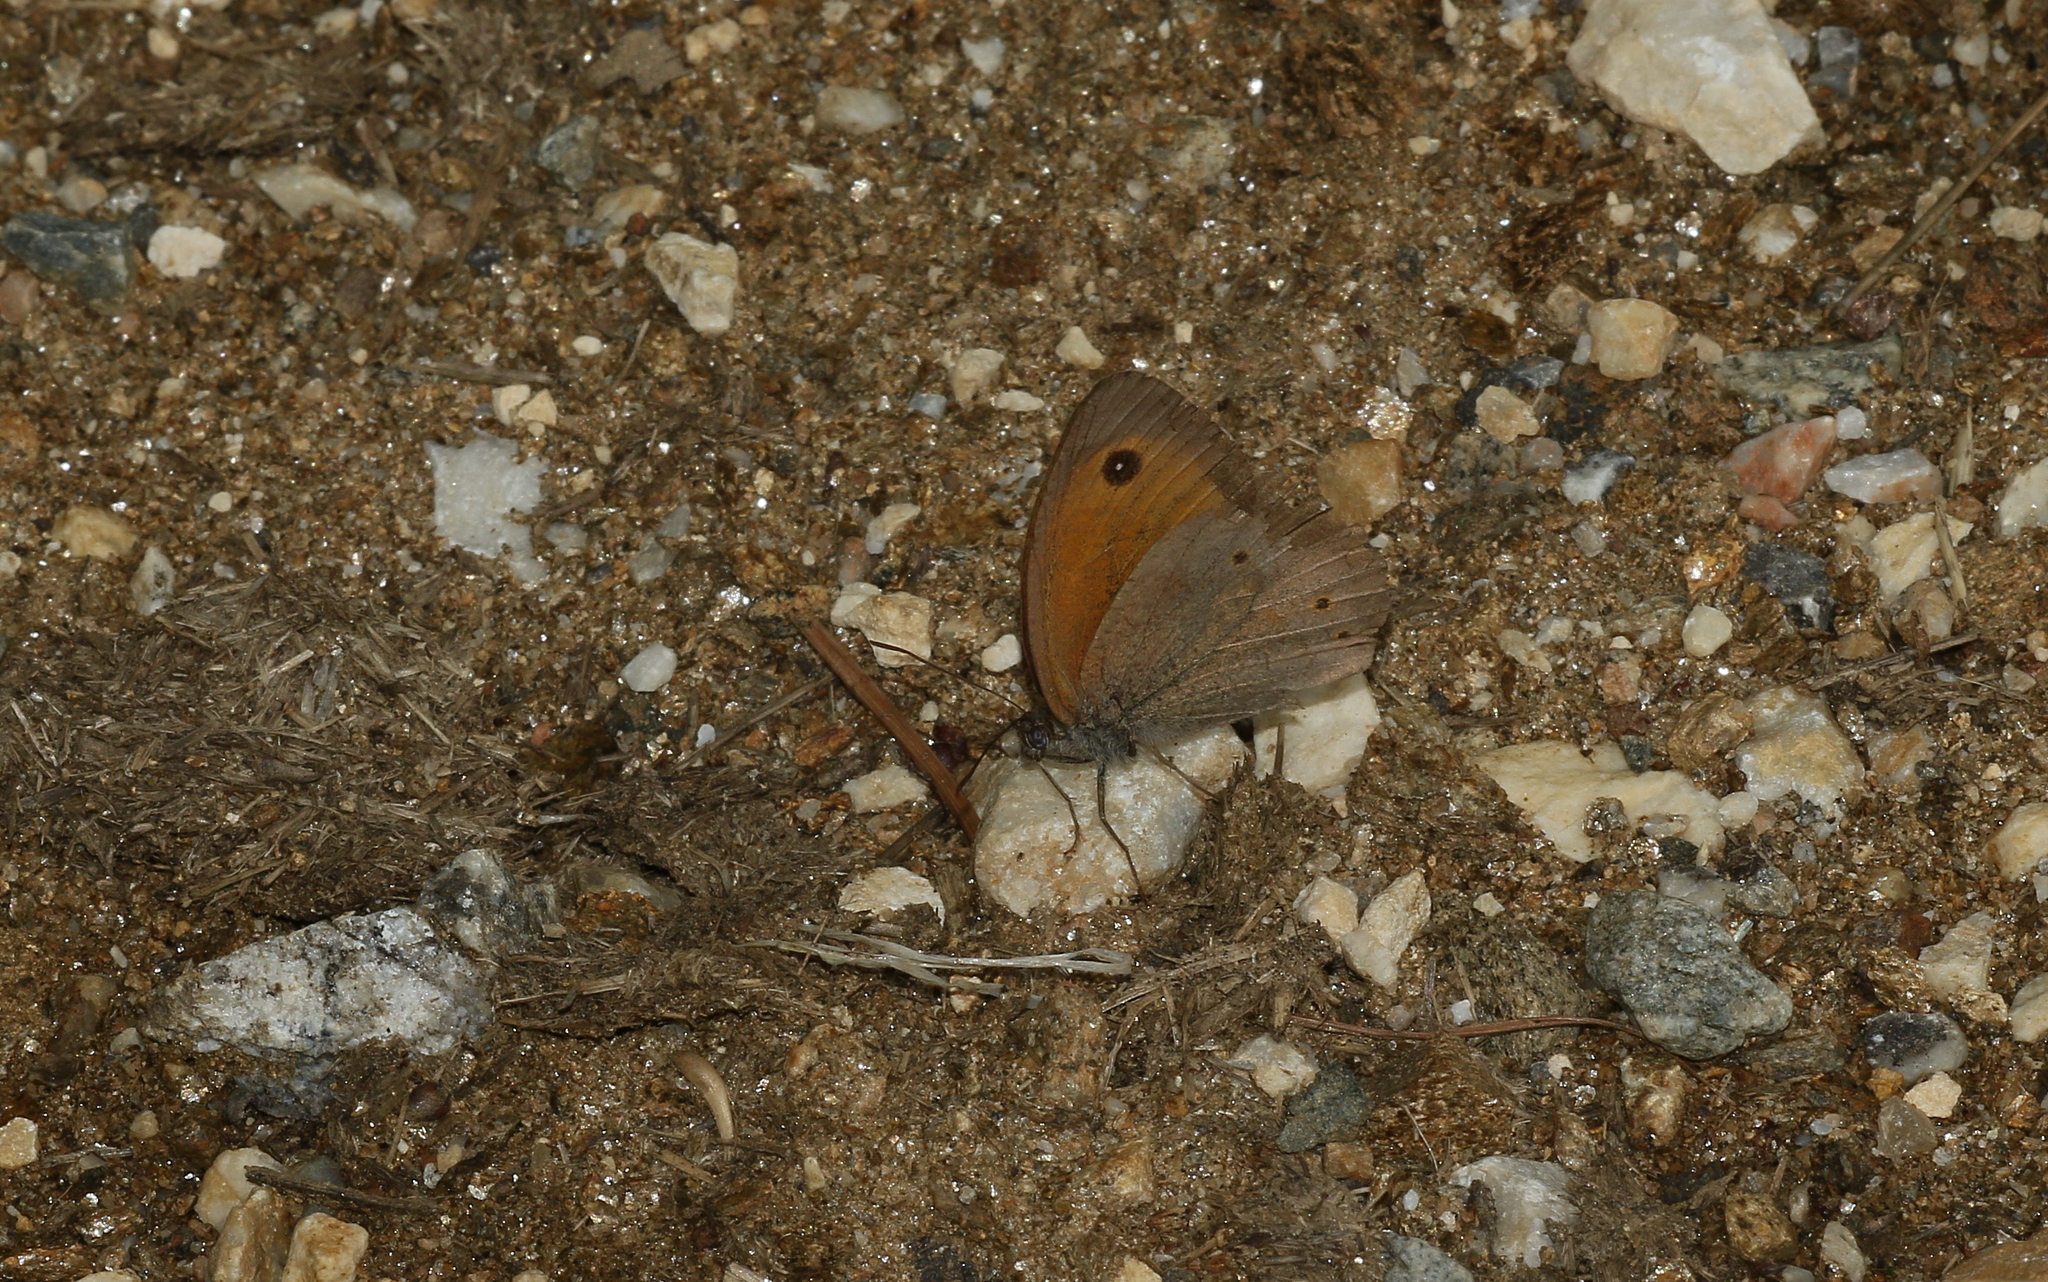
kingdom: Animalia
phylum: Arthropoda
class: Insecta
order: Lepidoptera
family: Nymphalidae
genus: Maniola
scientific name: Maniola jurtina
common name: Meadow brown
